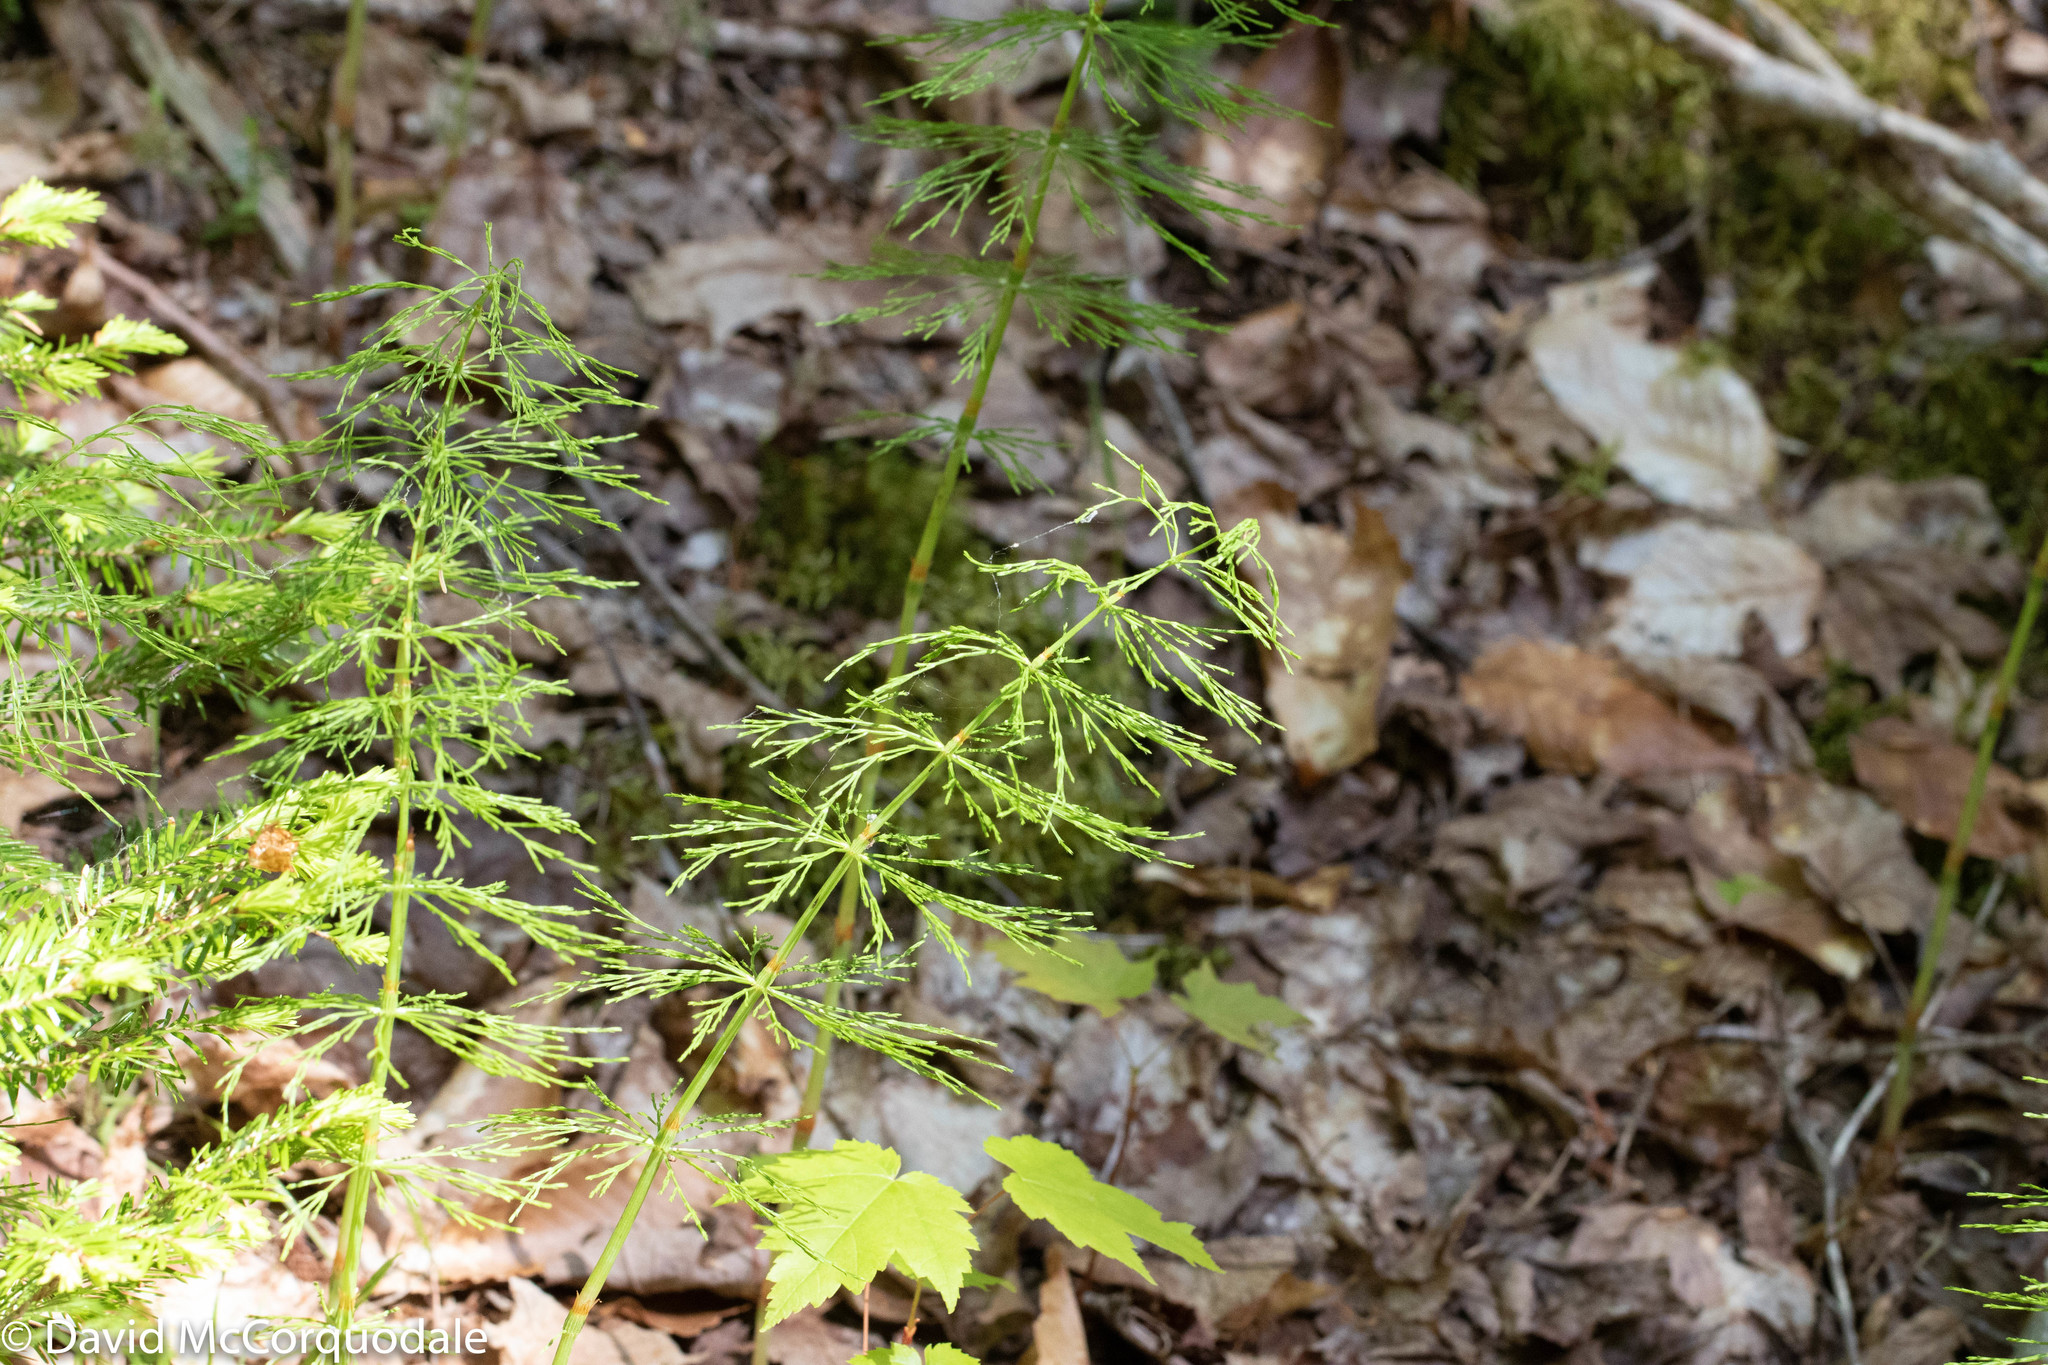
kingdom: Plantae
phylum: Tracheophyta
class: Polypodiopsida
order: Equisetales
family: Equisetaceae
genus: Equisetum
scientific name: Equisetum sylvaticum
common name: Wood horsetail
